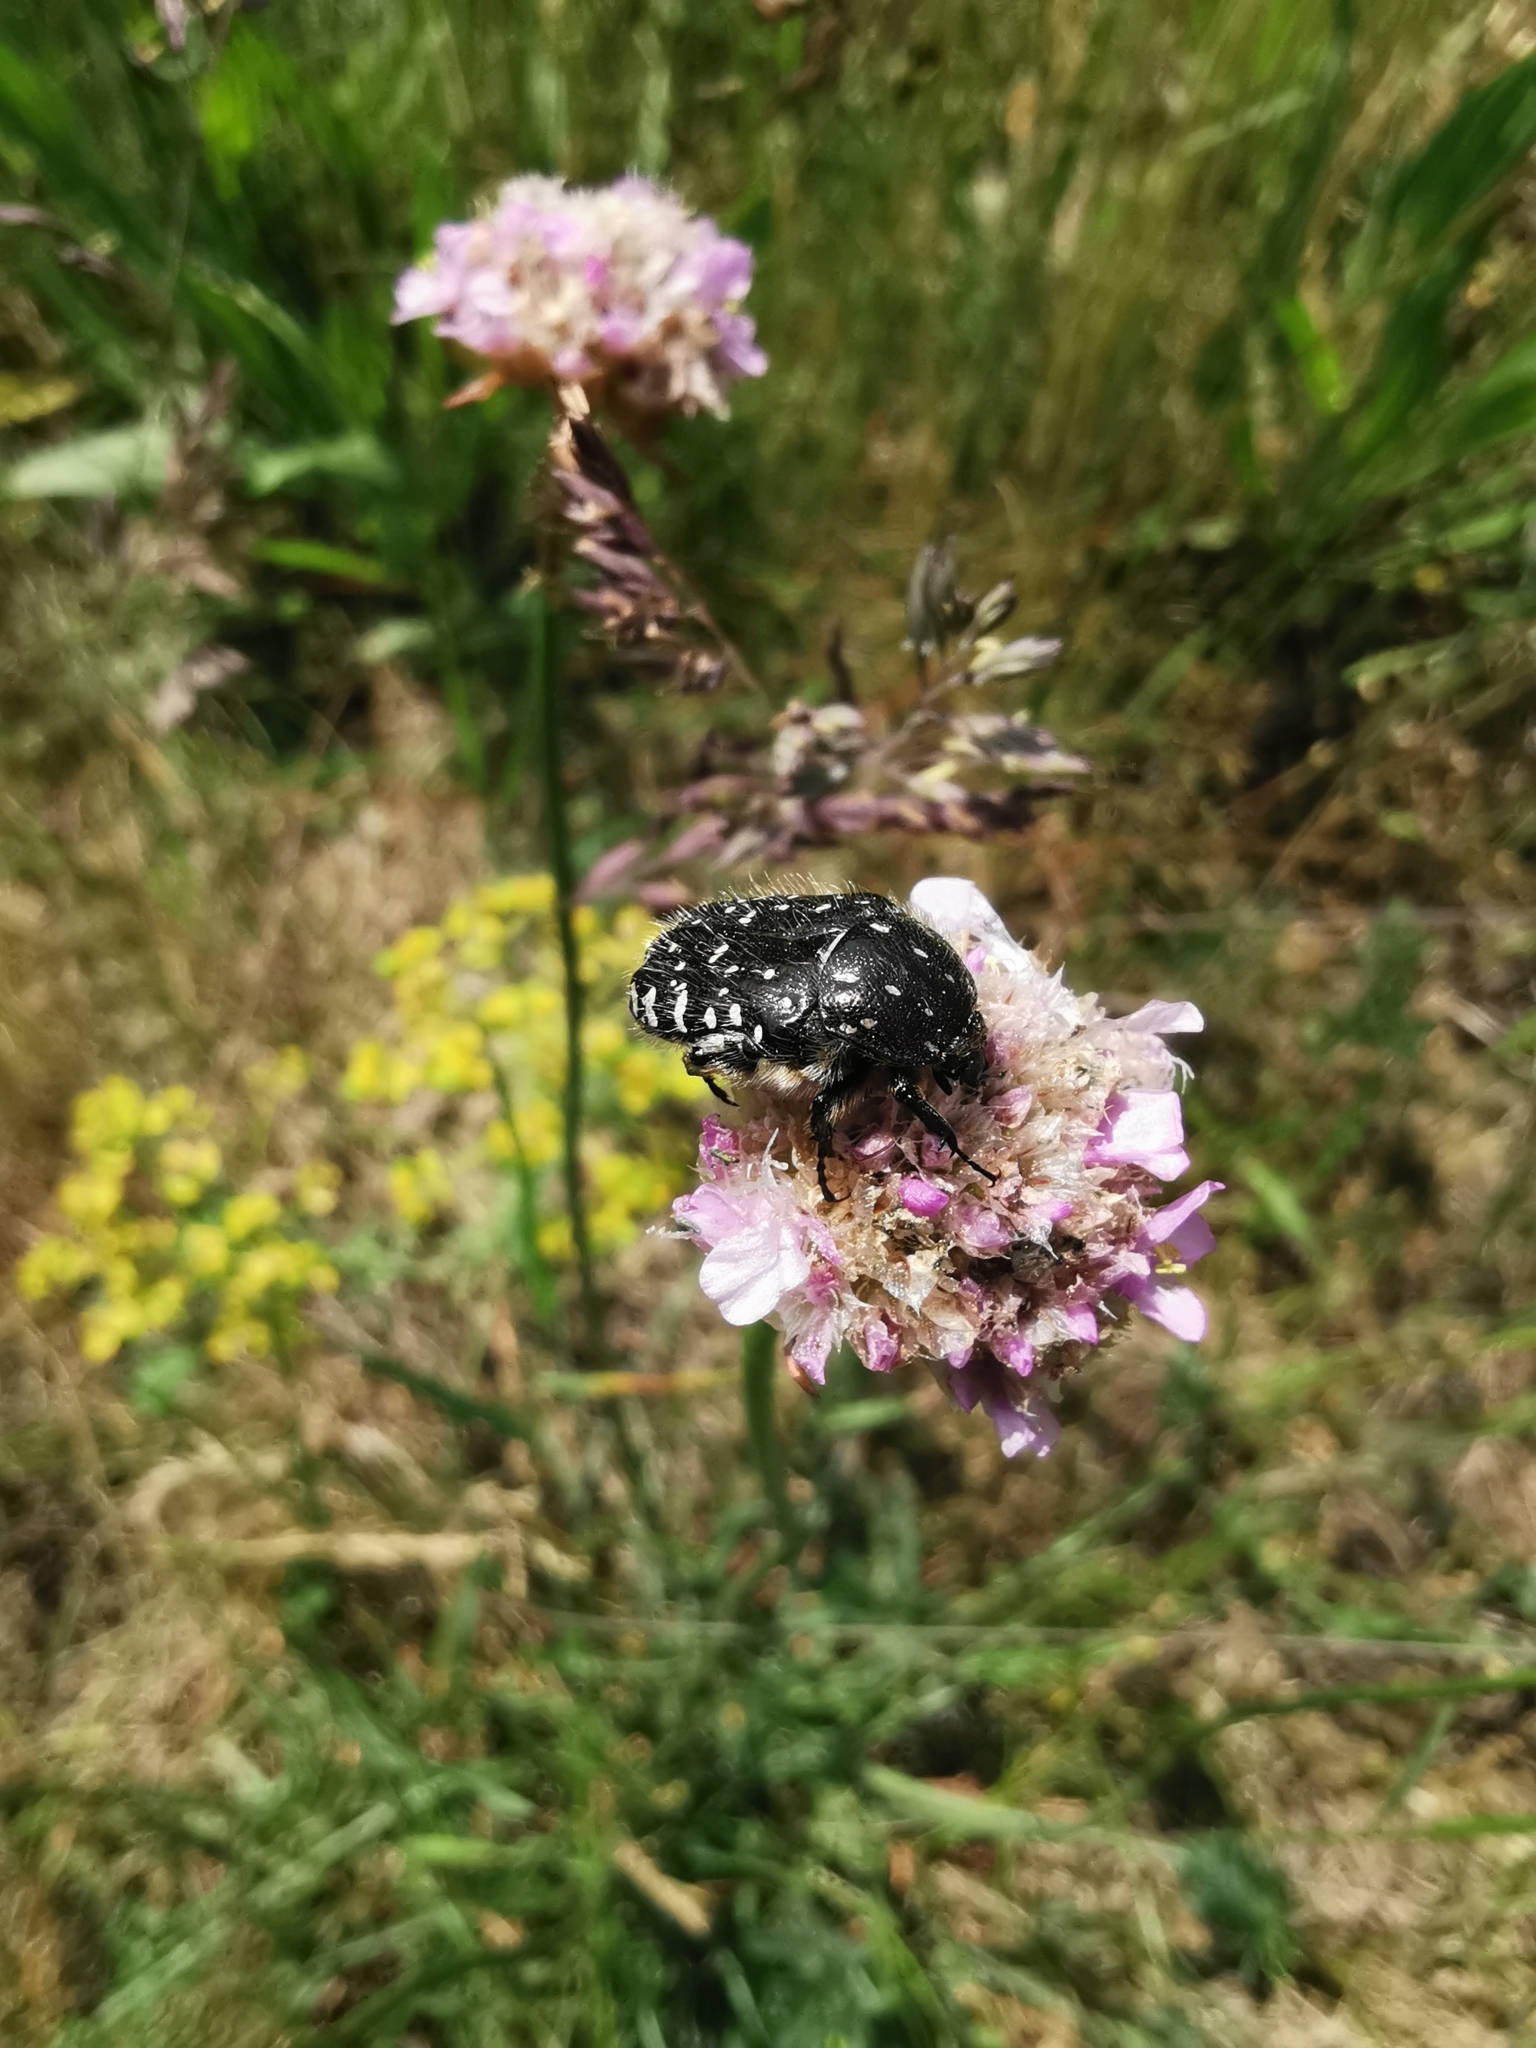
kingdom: Animalia
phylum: Arthropoda
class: Insecta
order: Coleoptera
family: Scarabaeidae
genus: Oxythyrea
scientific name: Oxythyrea funesta
